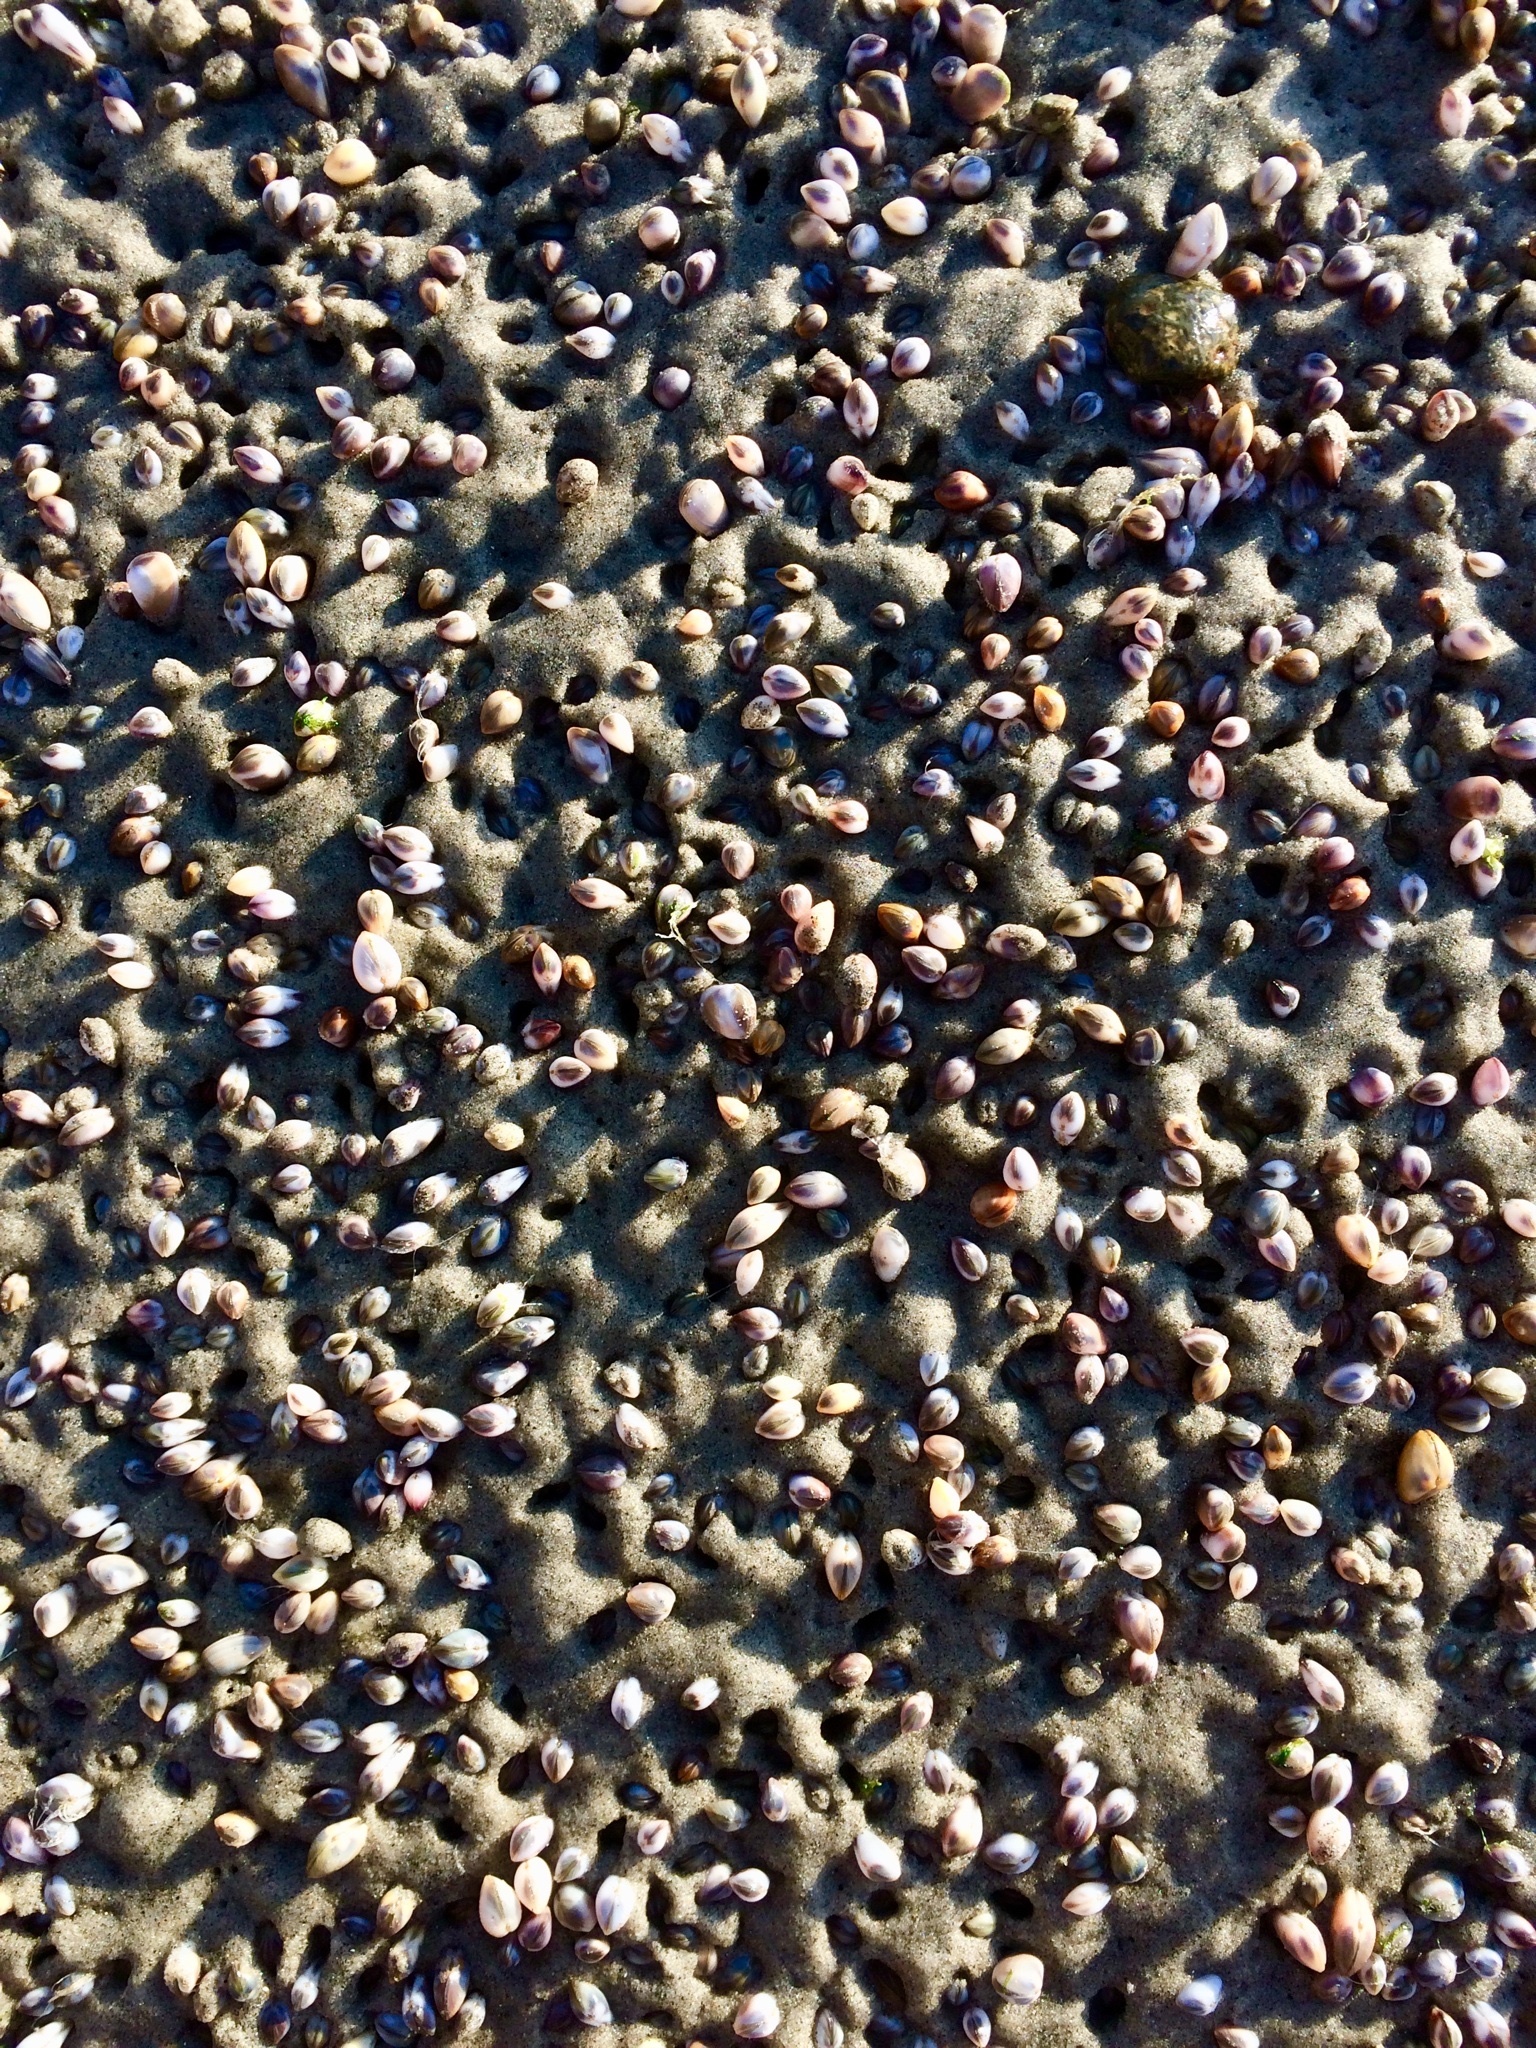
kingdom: Animalia
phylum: Mollusca
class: Bivalvia
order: Cardiida
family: Donacidae
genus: Donax
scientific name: Donax gouldii
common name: Gould beanclam
